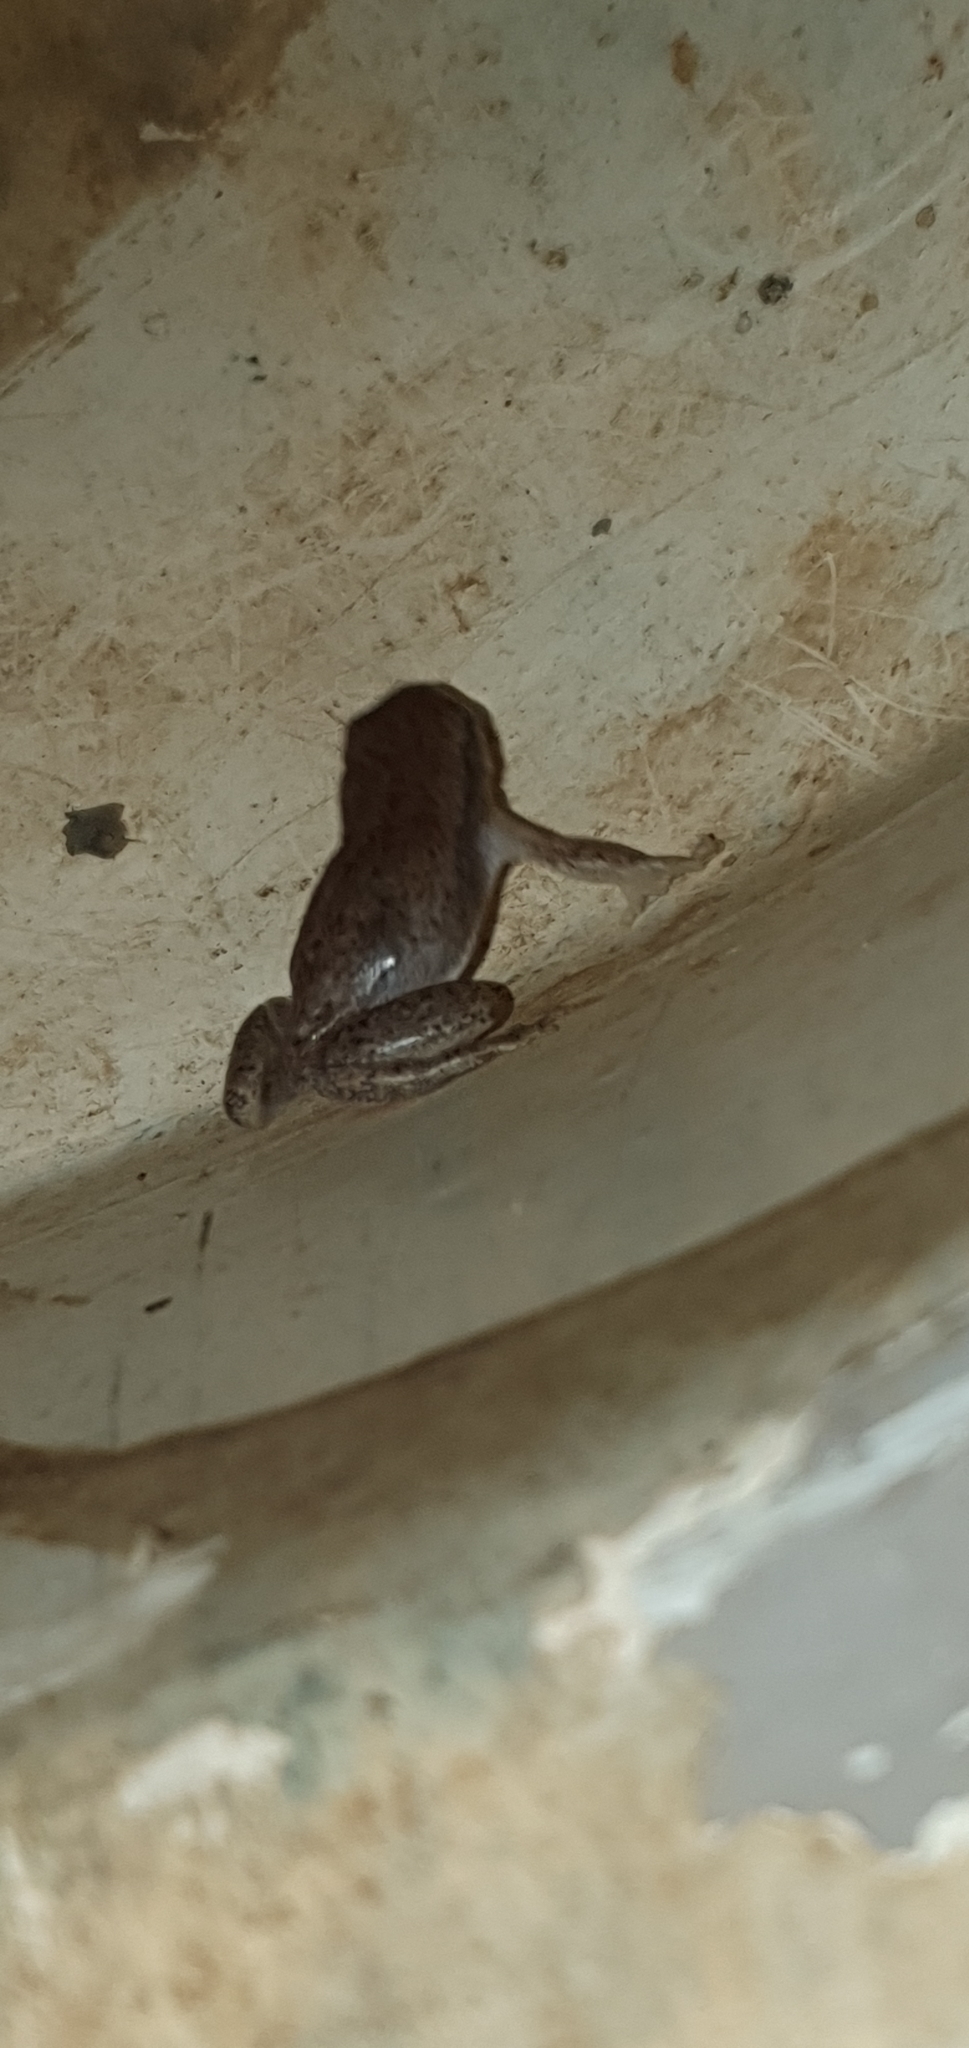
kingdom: Animalia
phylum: Chordata
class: Amphibia
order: Anura
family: Pelodryadidae
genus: Litoria
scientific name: Litoria rubella
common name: Desert tree frog
